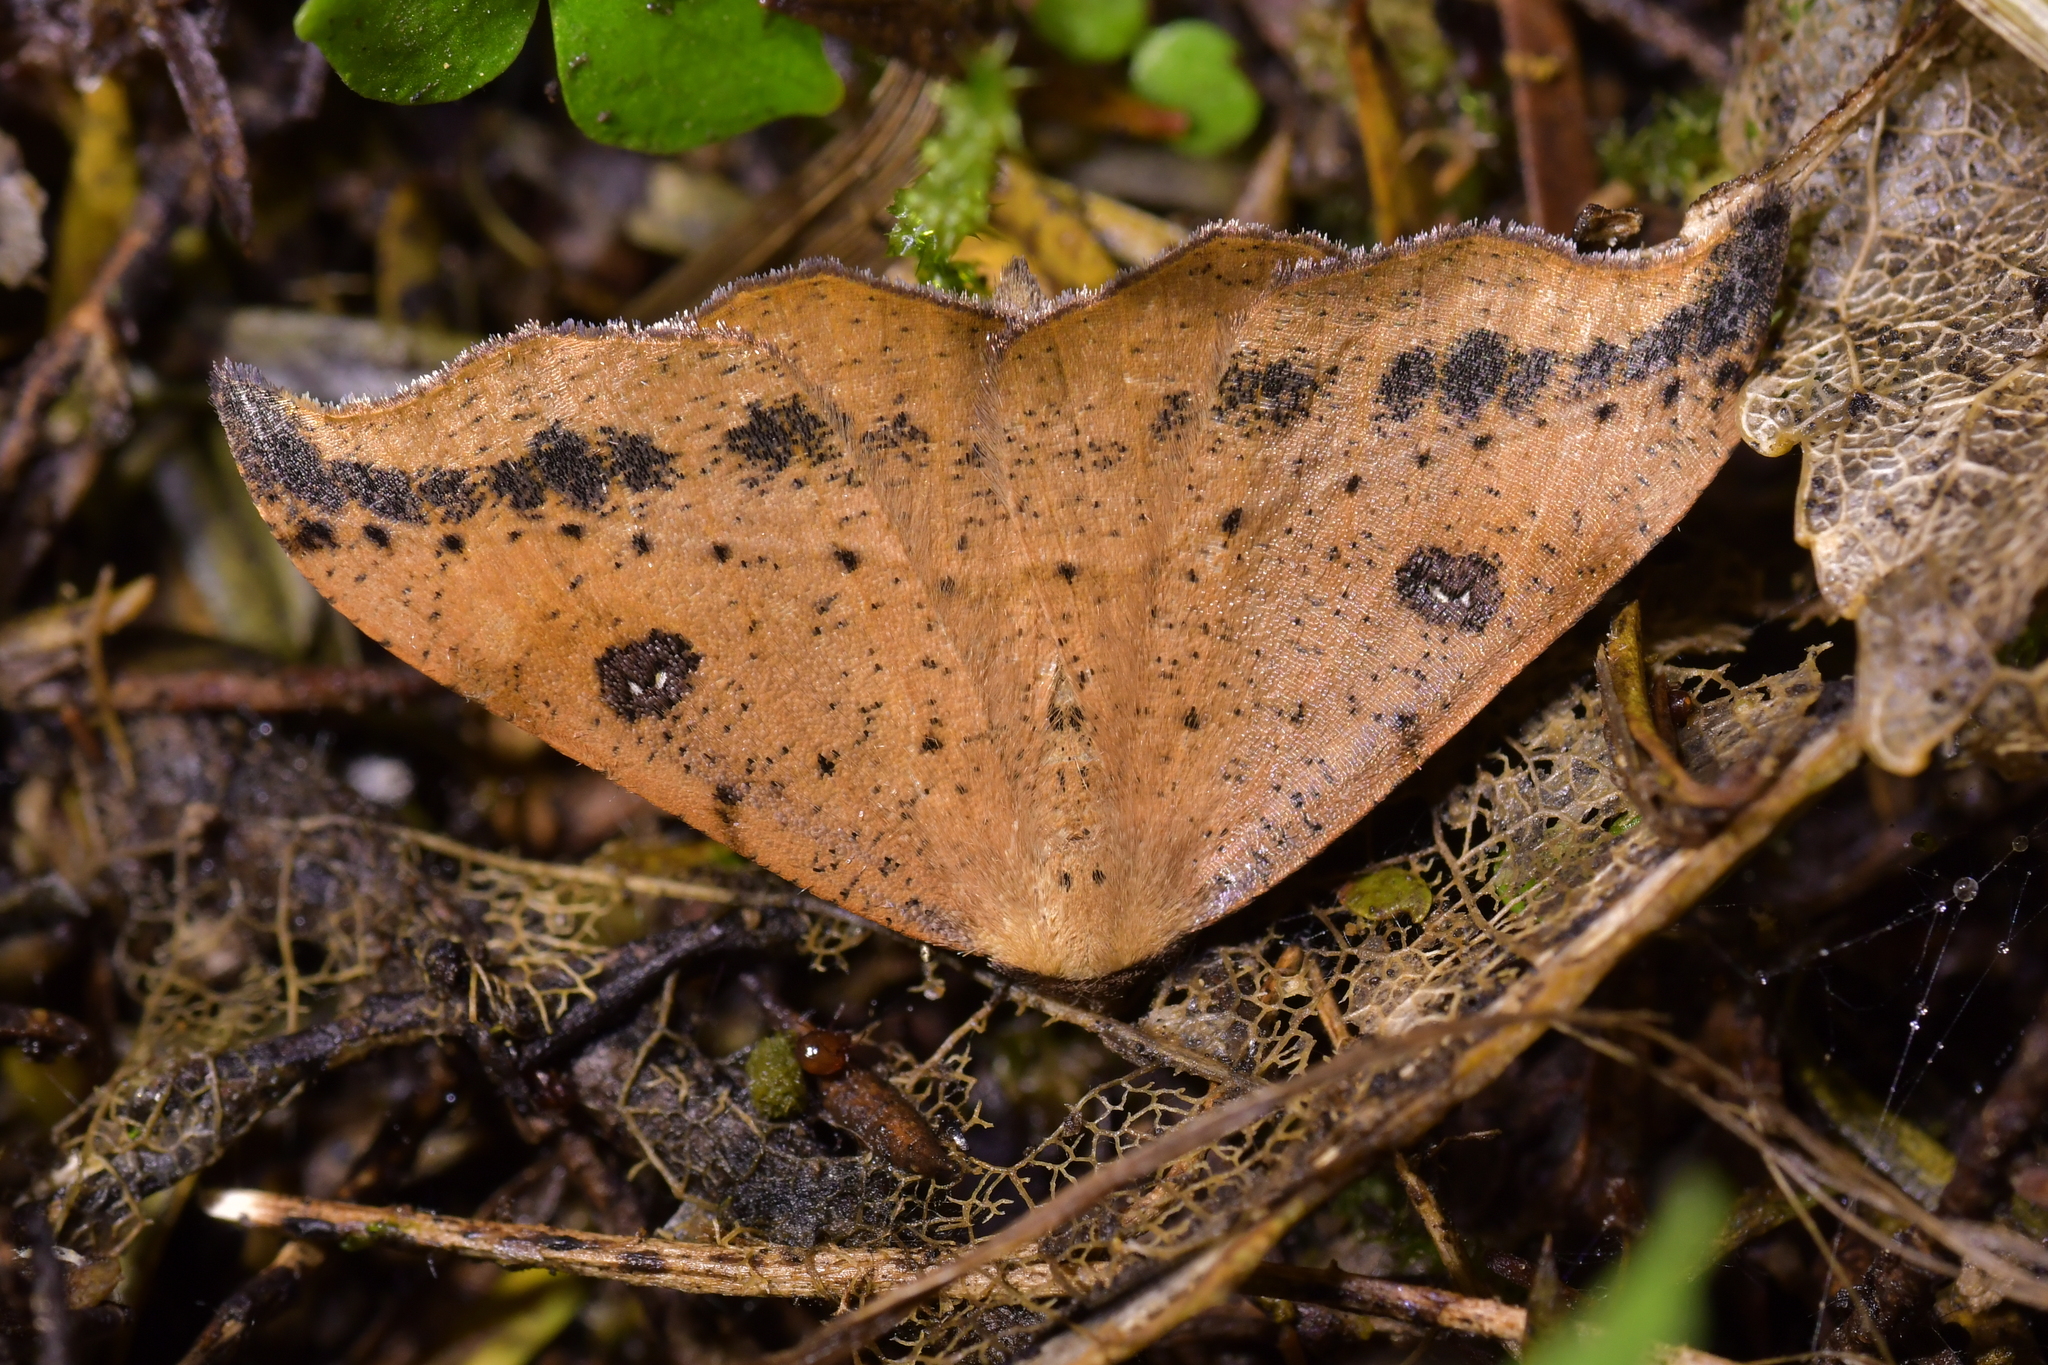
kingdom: Animalia
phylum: Arthropoda
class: Insecta
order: Lepidoptera
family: Geometridae
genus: Sarisa
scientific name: Sarisa muriferata
